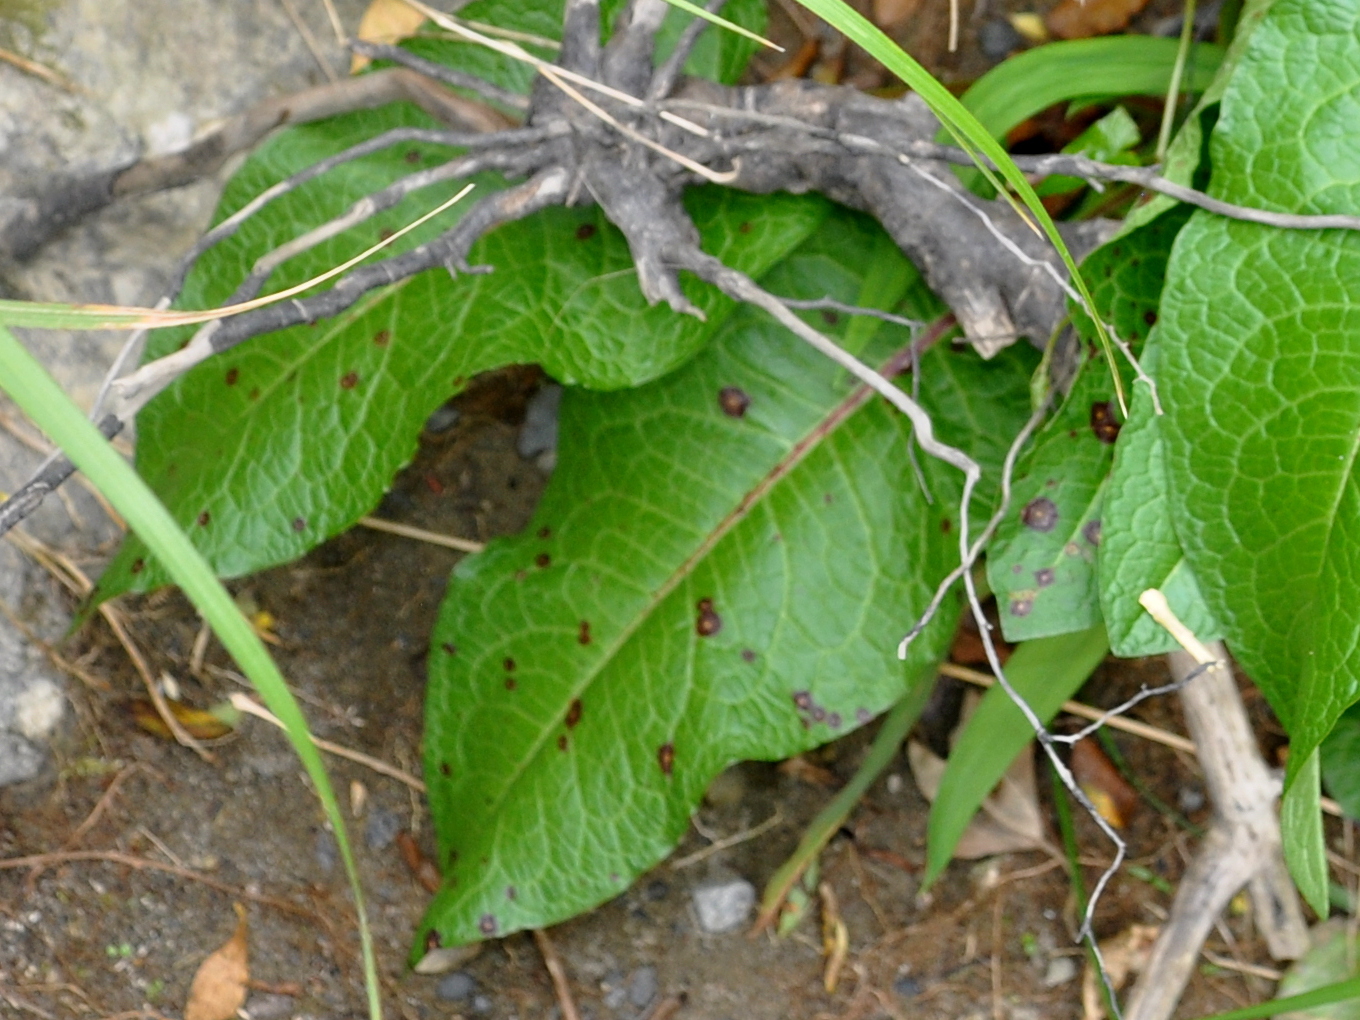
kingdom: Fungi
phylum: Ascomycota
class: Dothideomycetes
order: Mycosphaerellales
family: Mycosphaerellaceae
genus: Ramularia
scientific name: Ramularia rubella
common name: Red dock spot
